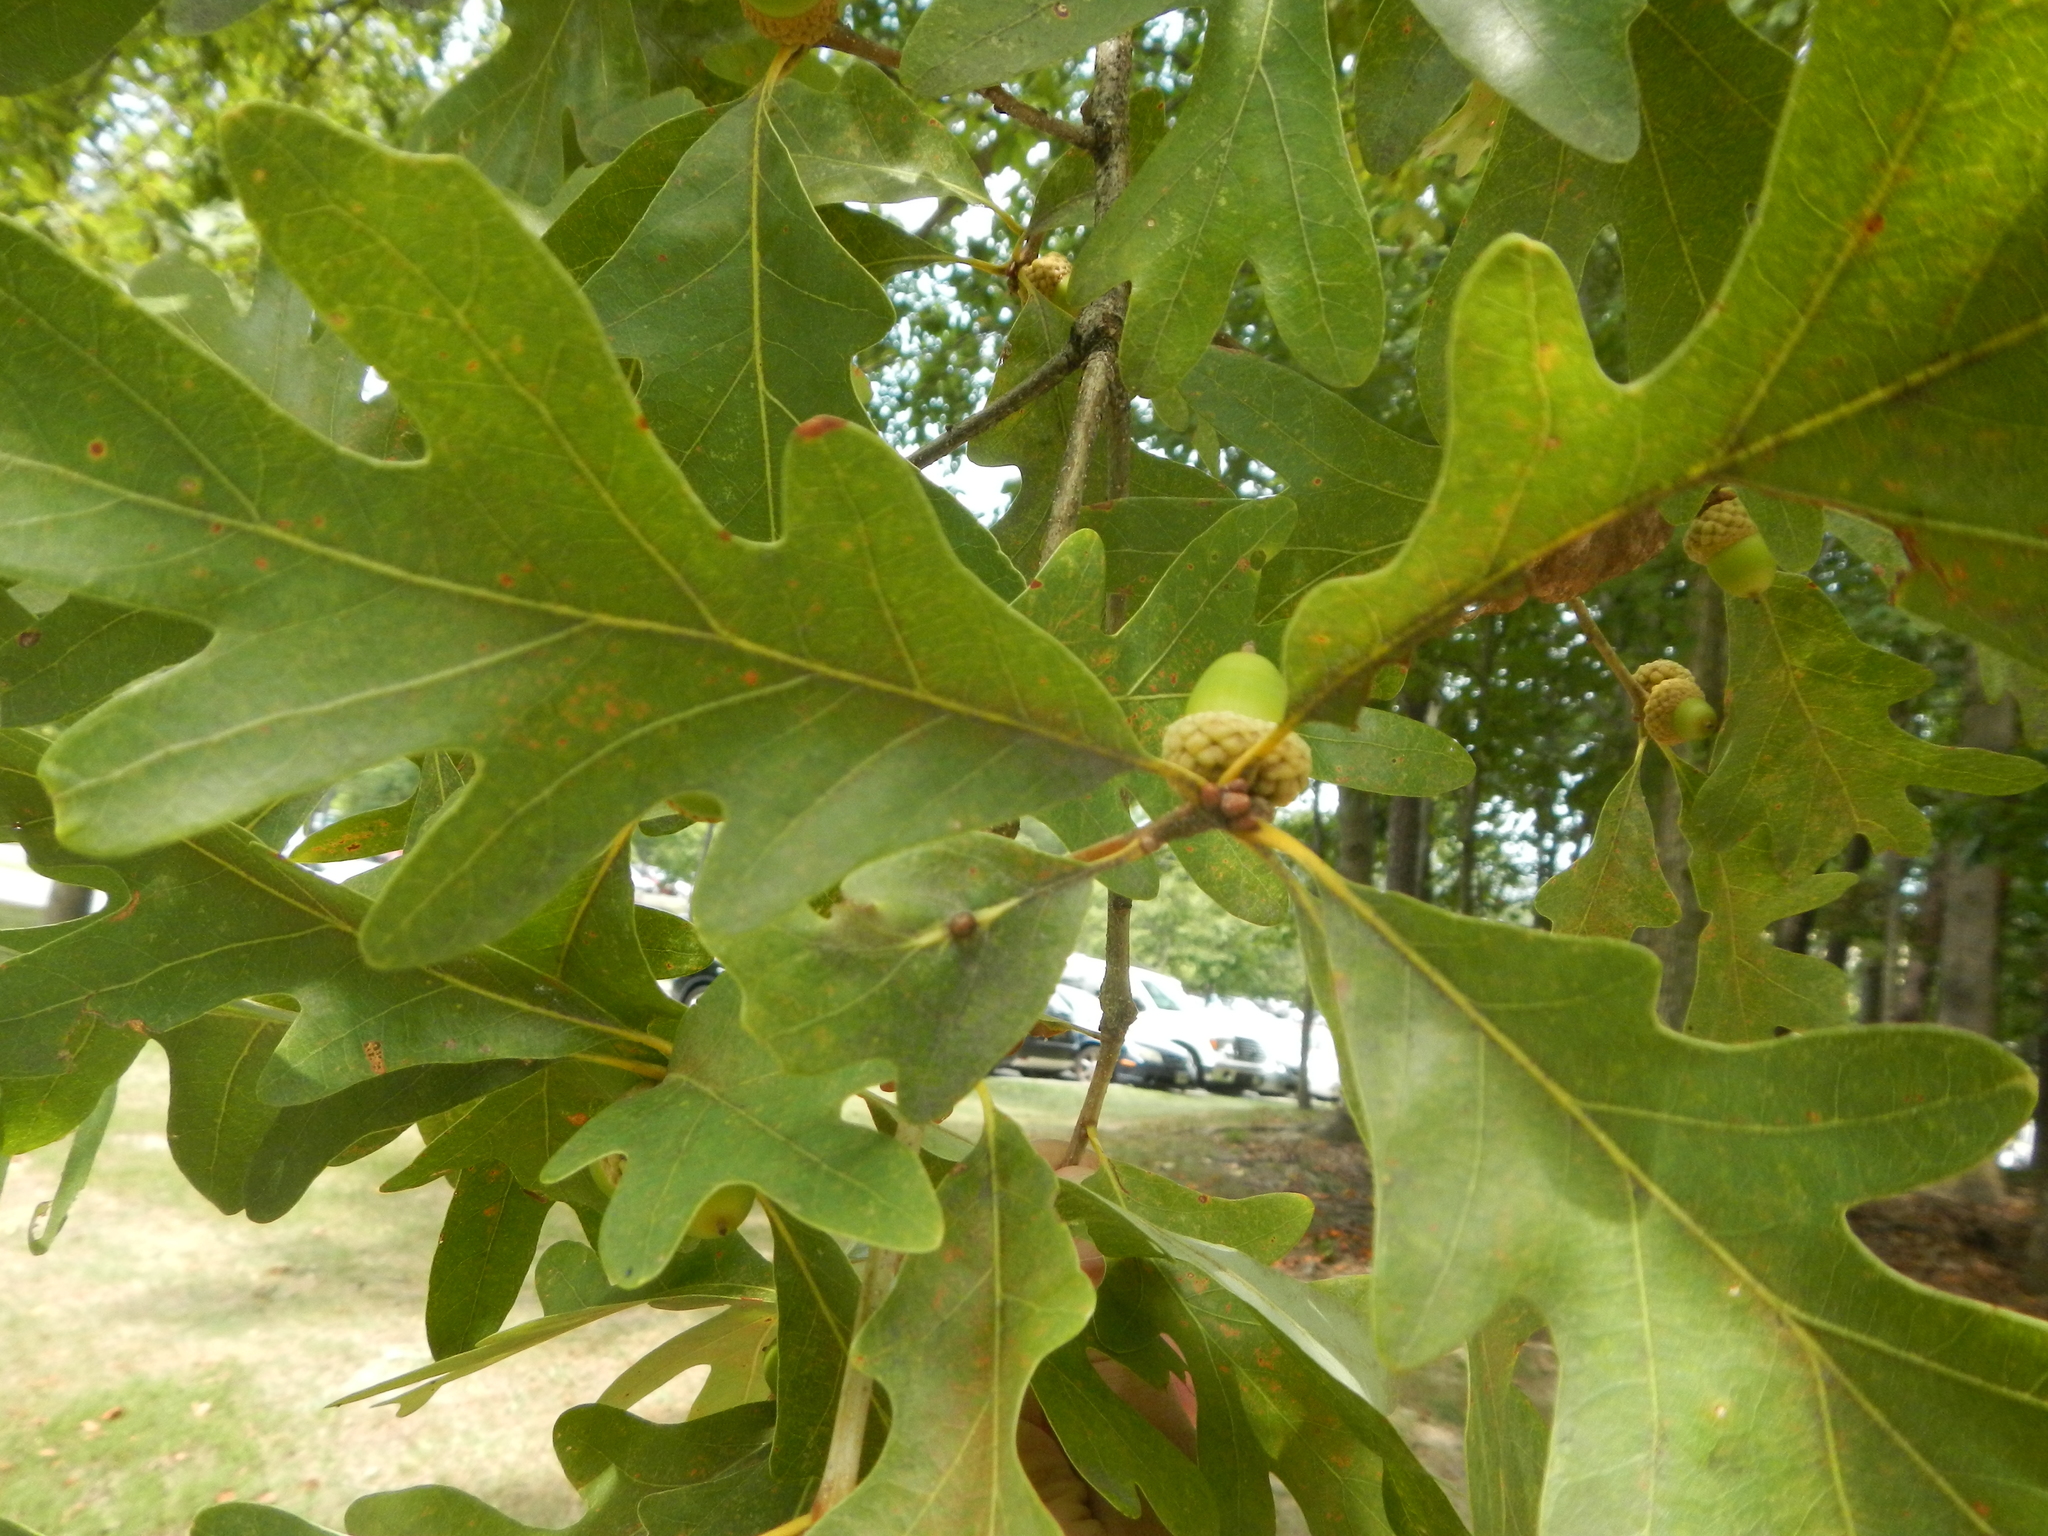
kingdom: Plantae
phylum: Tracheophyta
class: Magnoliopsida
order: Fagales
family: Fagaceae
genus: Quercus
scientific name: Quercus alba
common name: White oak
